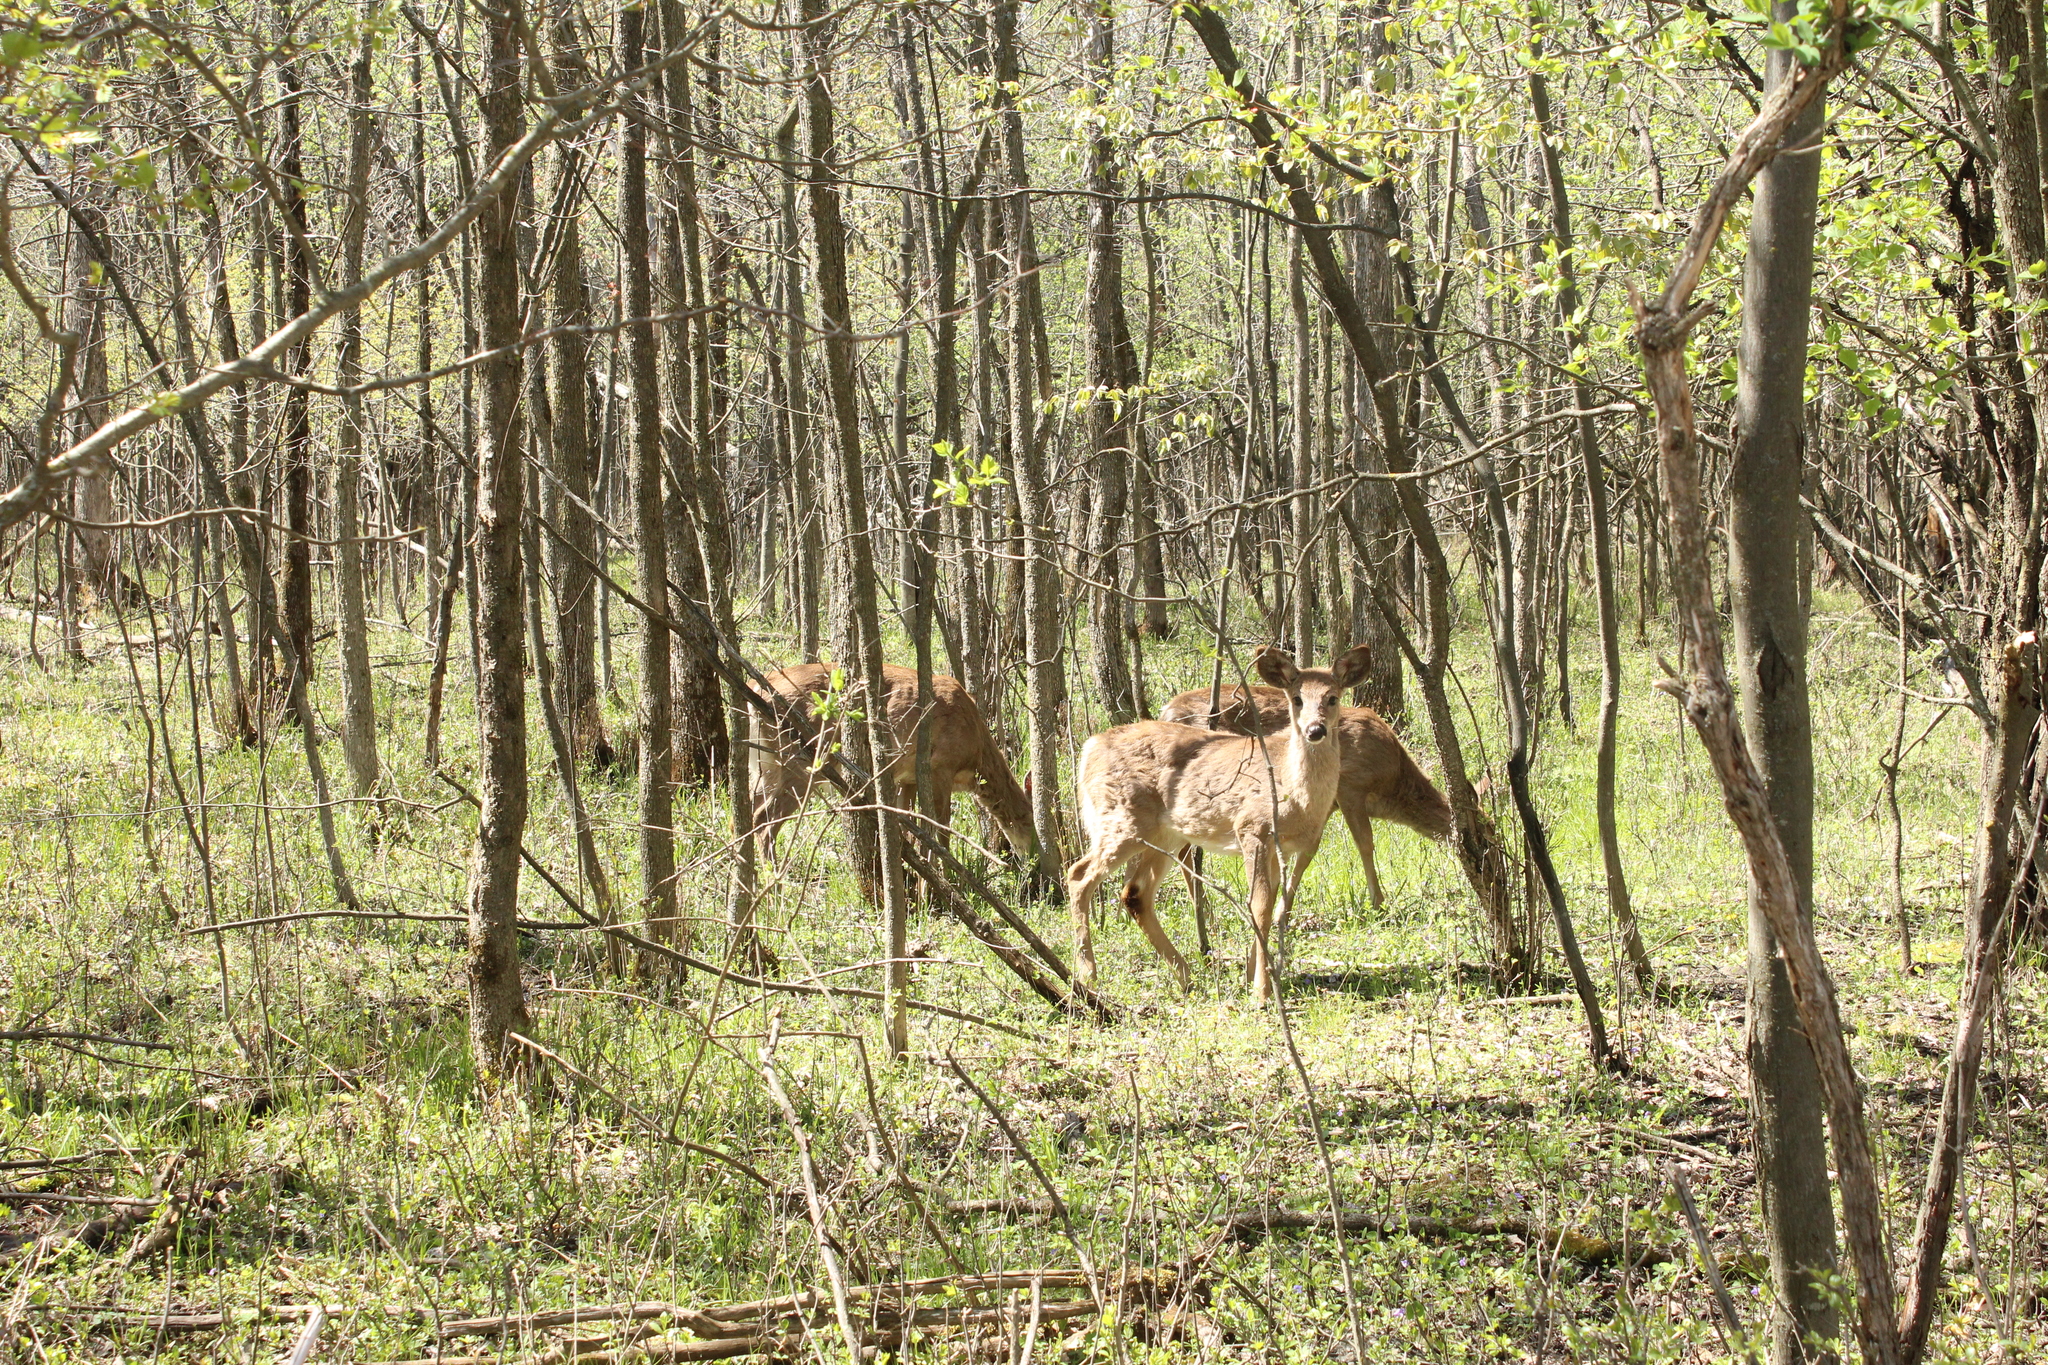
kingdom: Animalia
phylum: Chordata
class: Mammalia
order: Artiodactyla
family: Cervidae
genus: Odocoileus
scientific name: Odocoileus virginianus
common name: White-tailed deer
